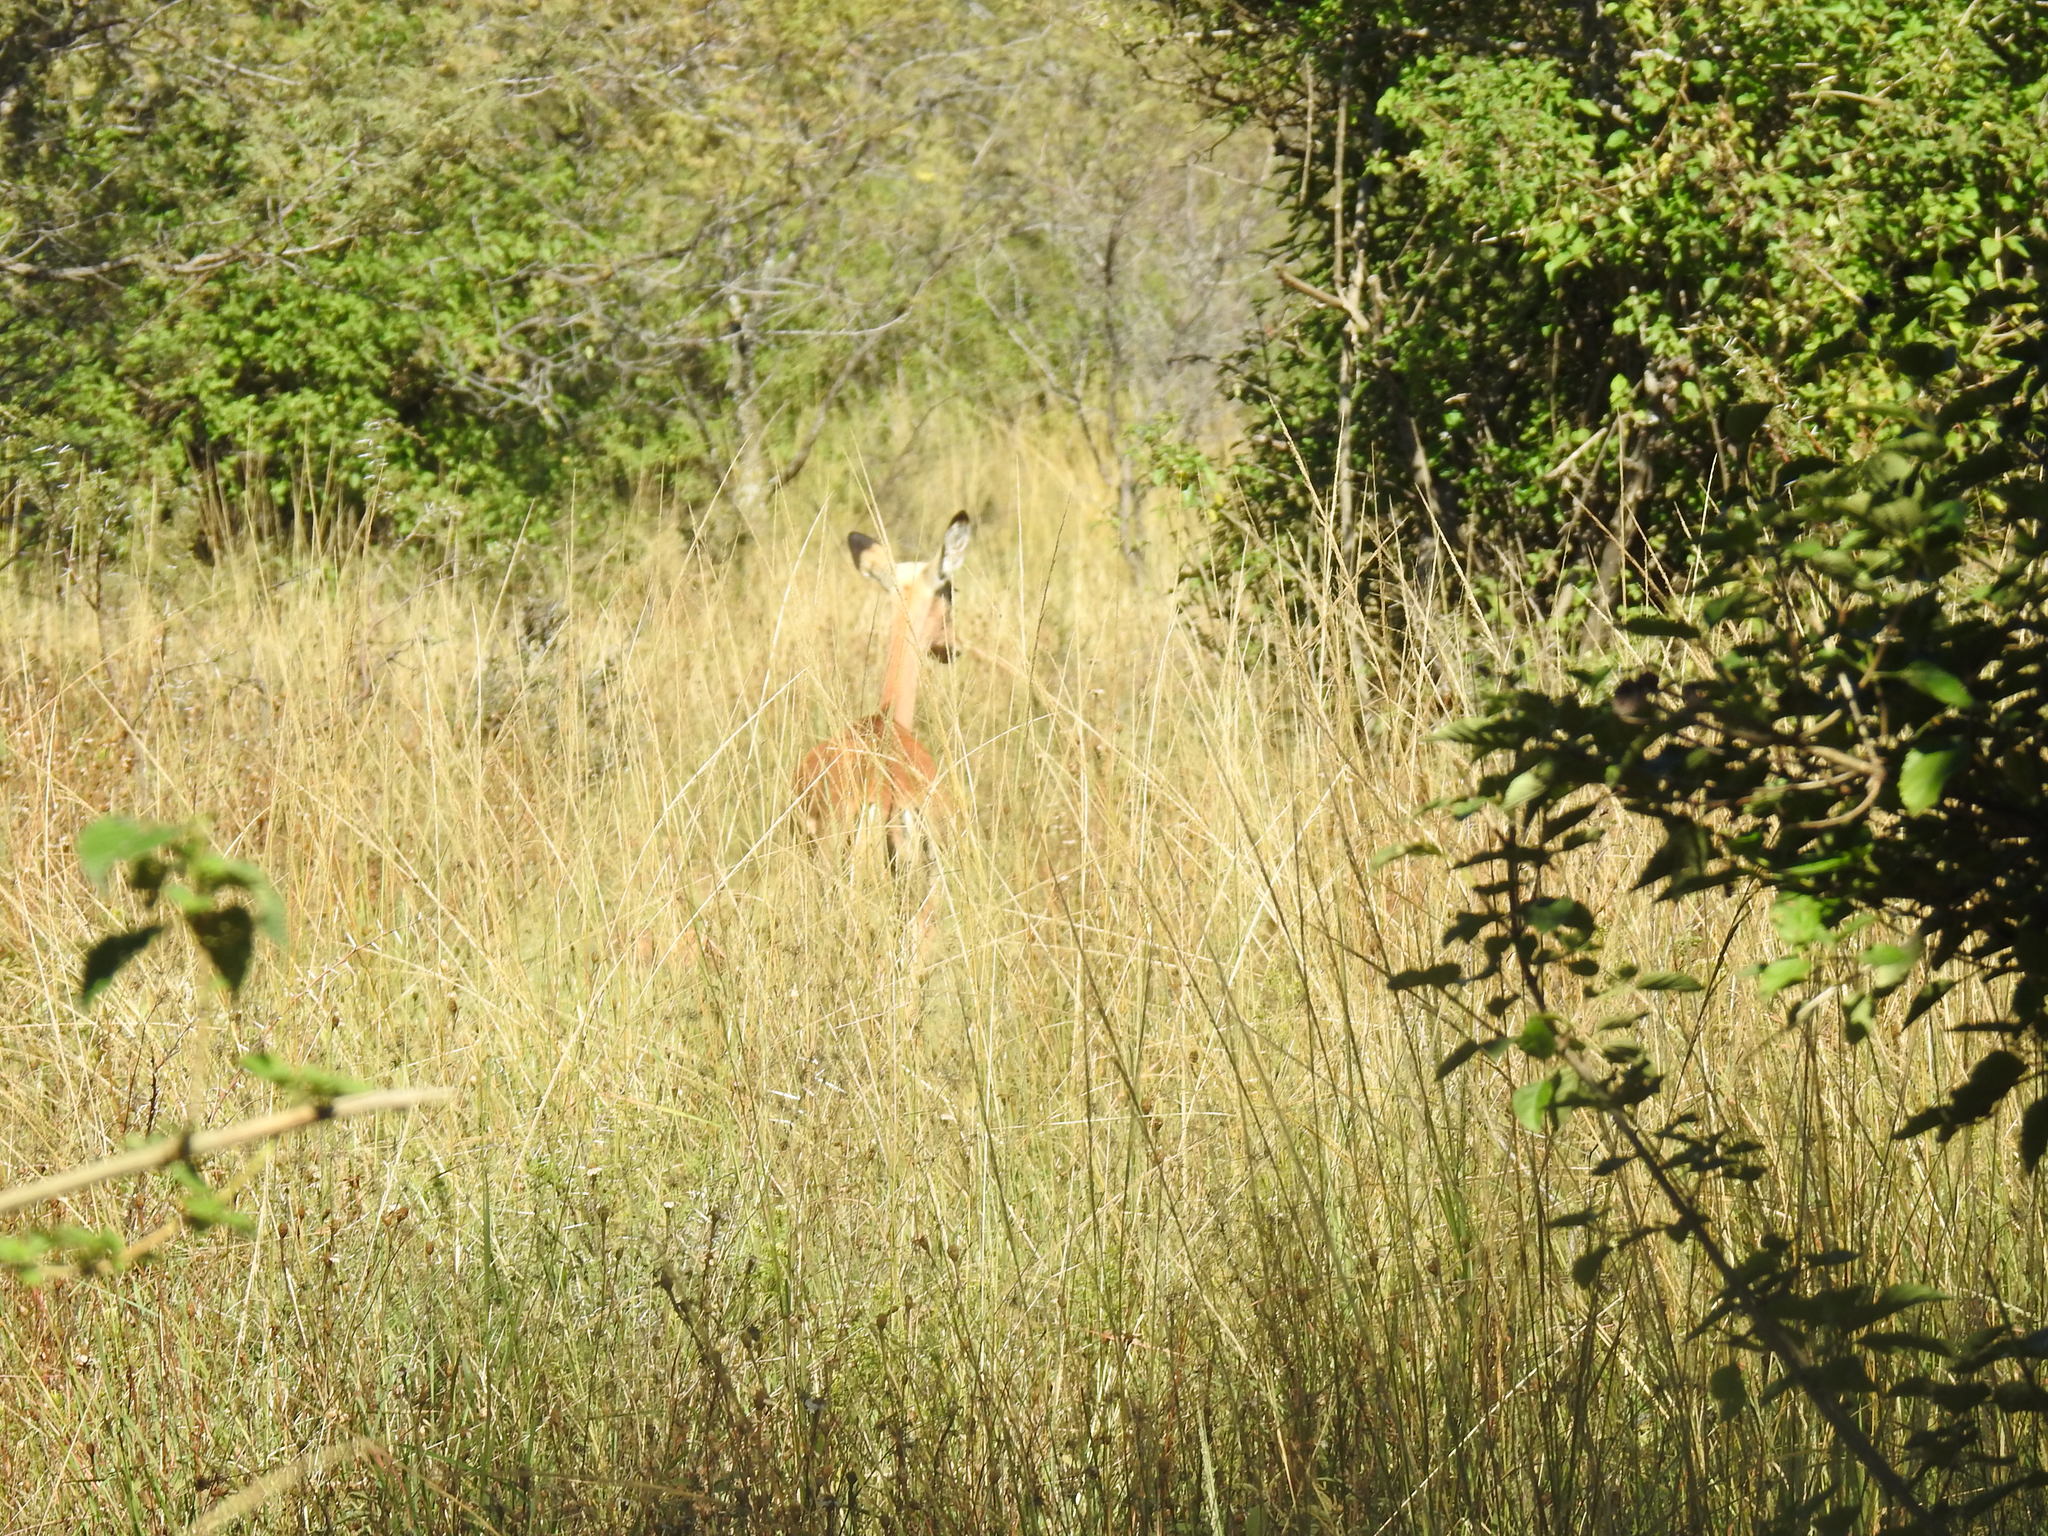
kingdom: Animalia
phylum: Chordata
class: Mammalia
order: Artiodactyla
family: Bovidae
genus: Aepyceros
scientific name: Aepyceros melampus
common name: Impala
